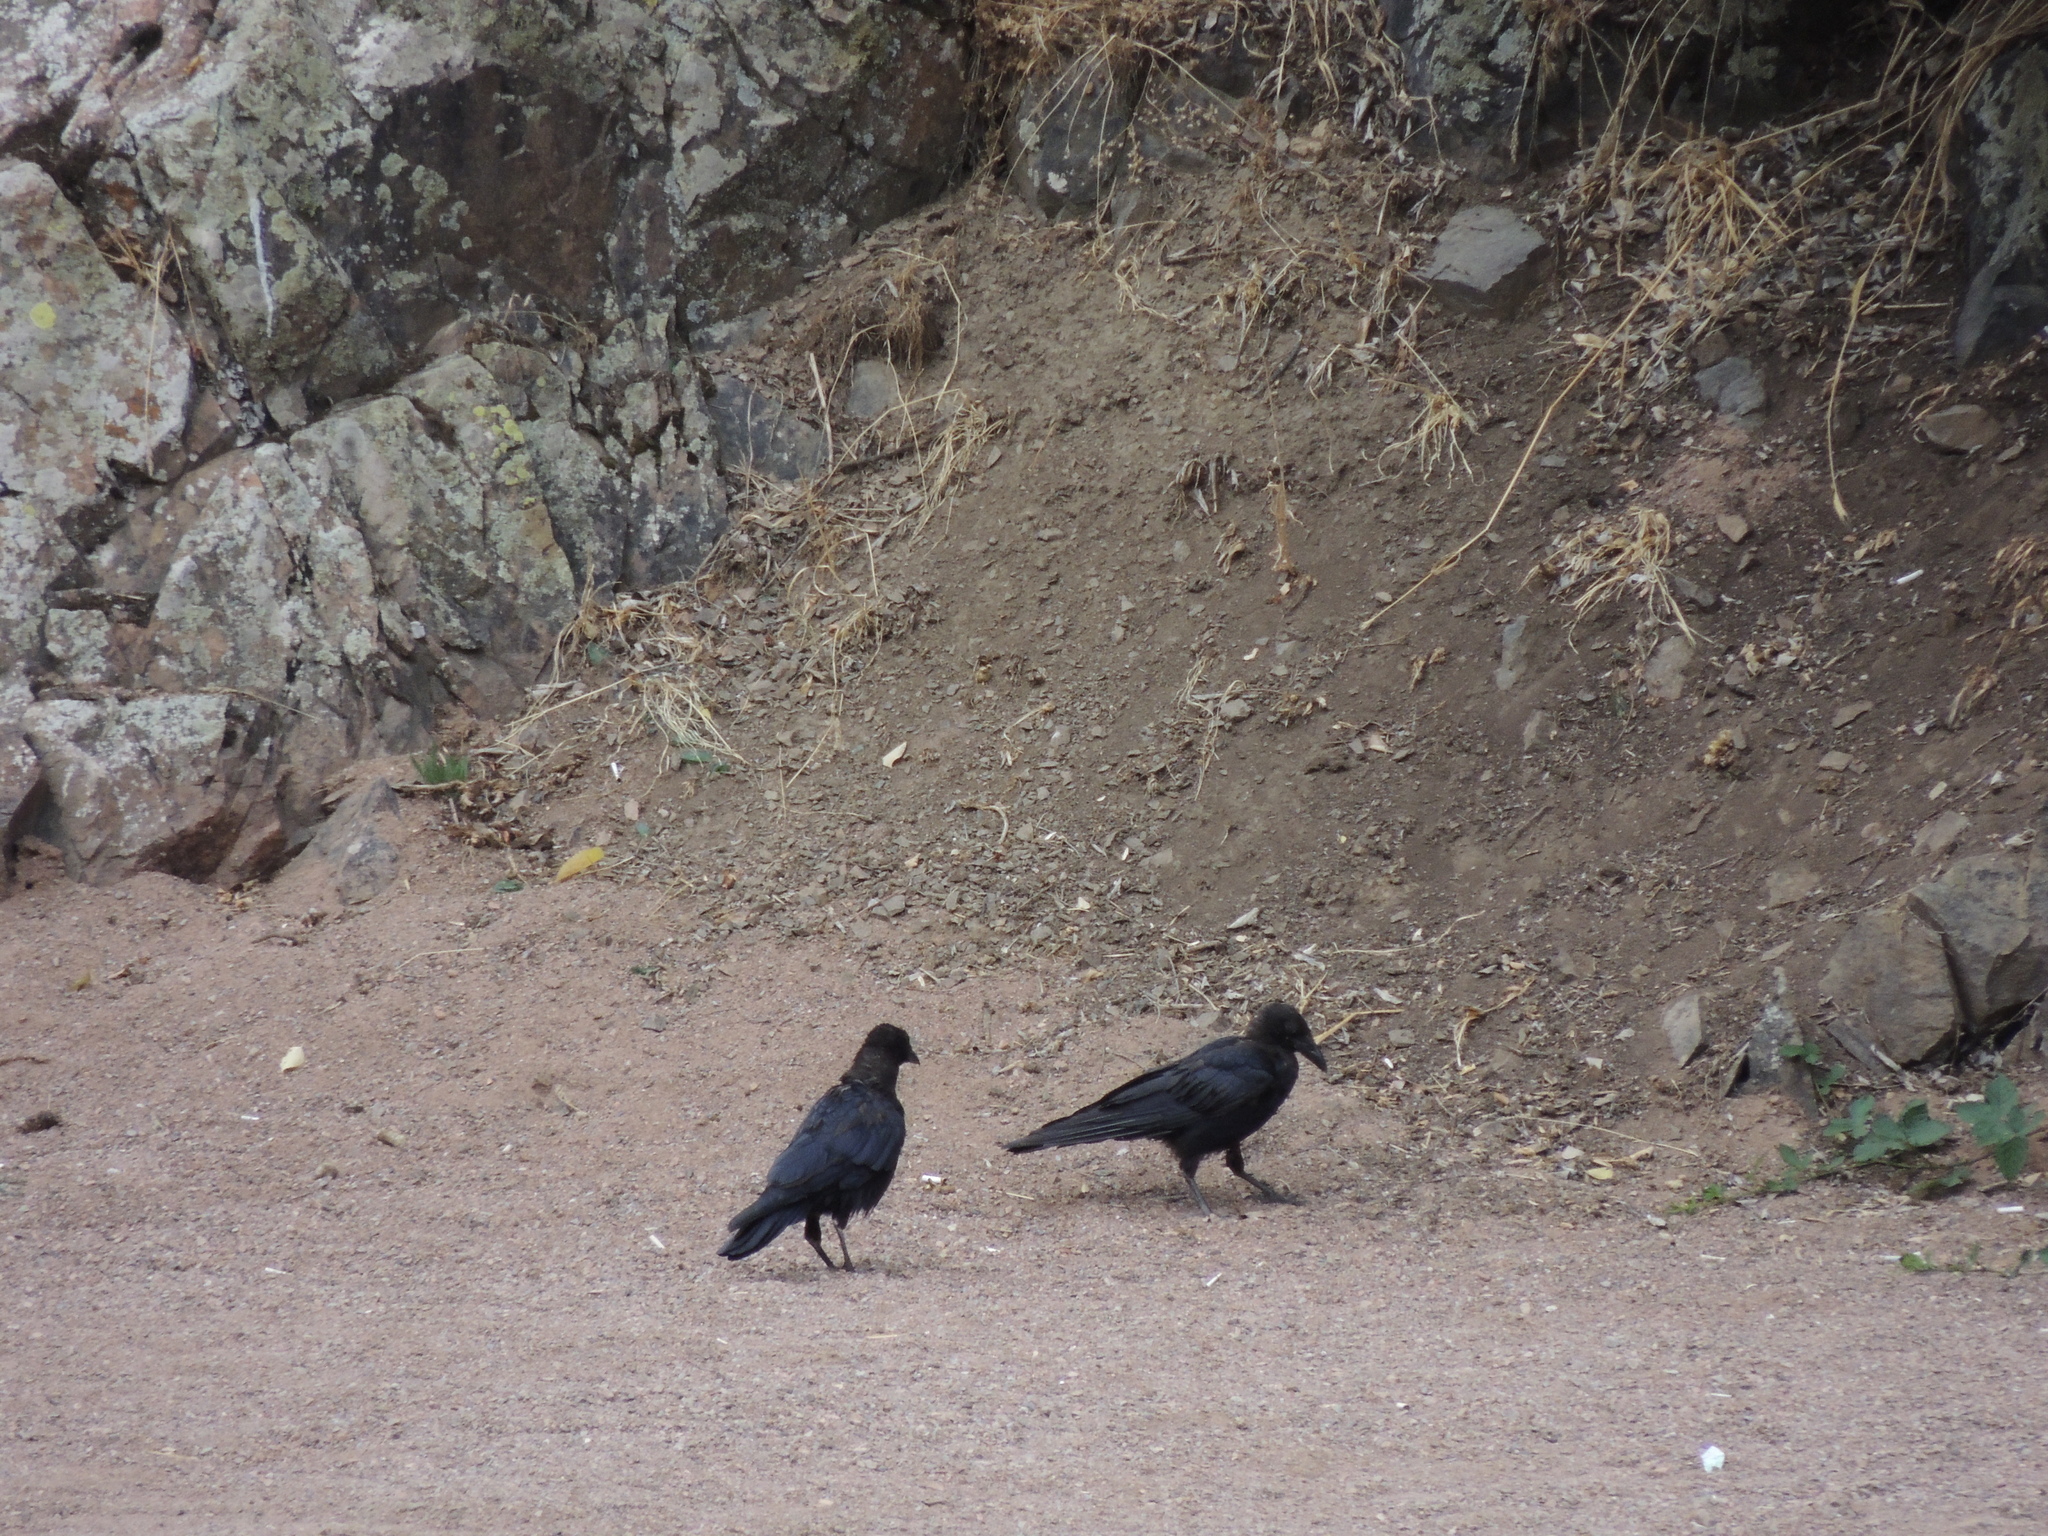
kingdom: Animalia
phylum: Chordata
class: Aves
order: Passeriformes
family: Corvidae
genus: Corvus
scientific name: Corvus corone
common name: Carrion crow
